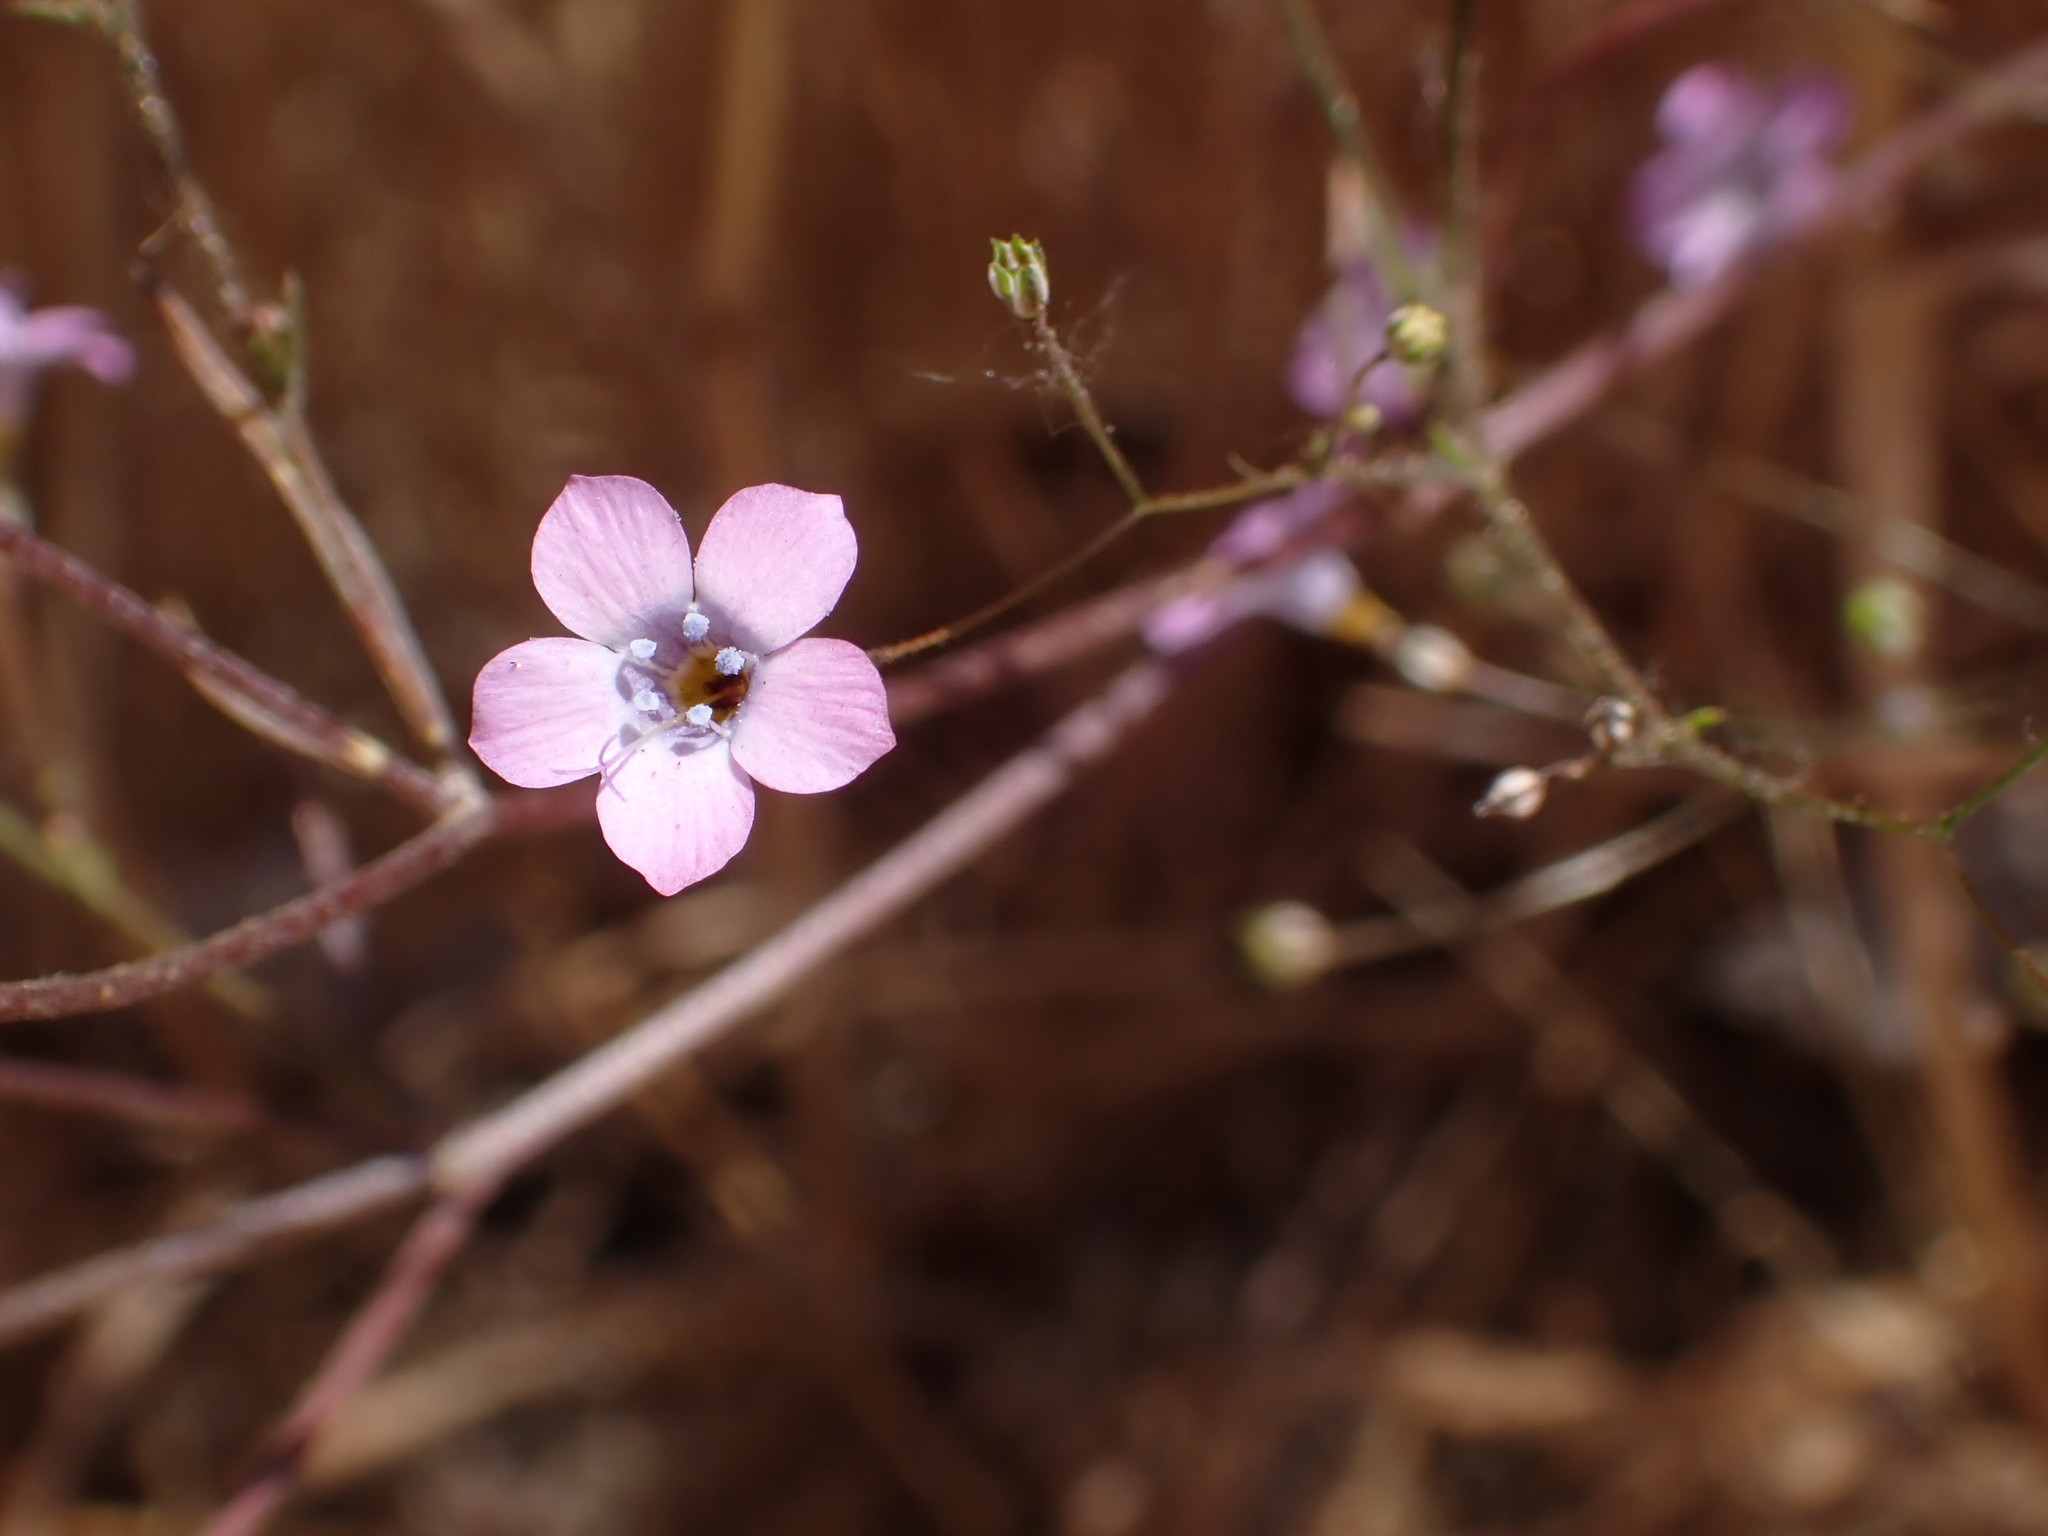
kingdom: Plantae
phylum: Tracheophyta
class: Magnoliopsida
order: Ericales
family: Polemoniaceae
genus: Gilia
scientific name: Gilia ochroleuca
